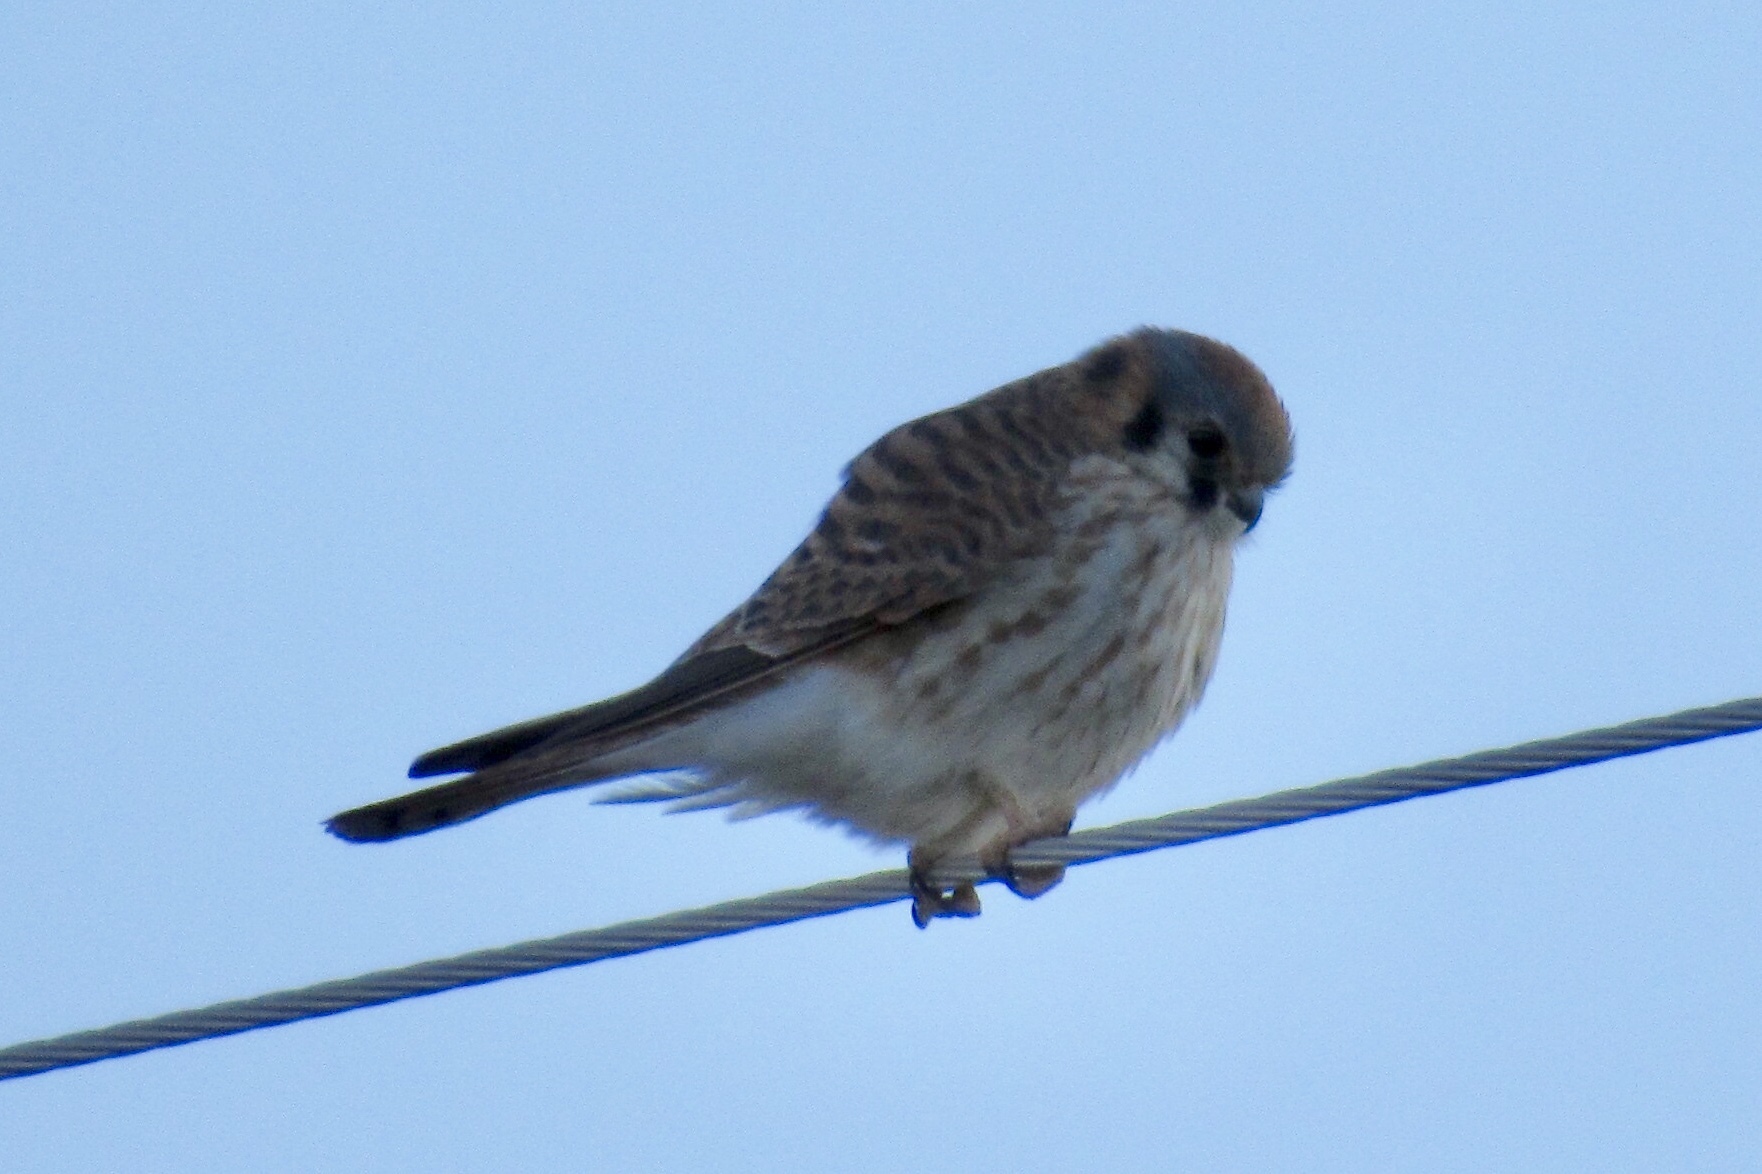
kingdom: Animalia
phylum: Chordata
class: Aves
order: Falconiformes
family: Falconidae
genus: Falco
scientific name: Falco sparverius
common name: American kestrel
